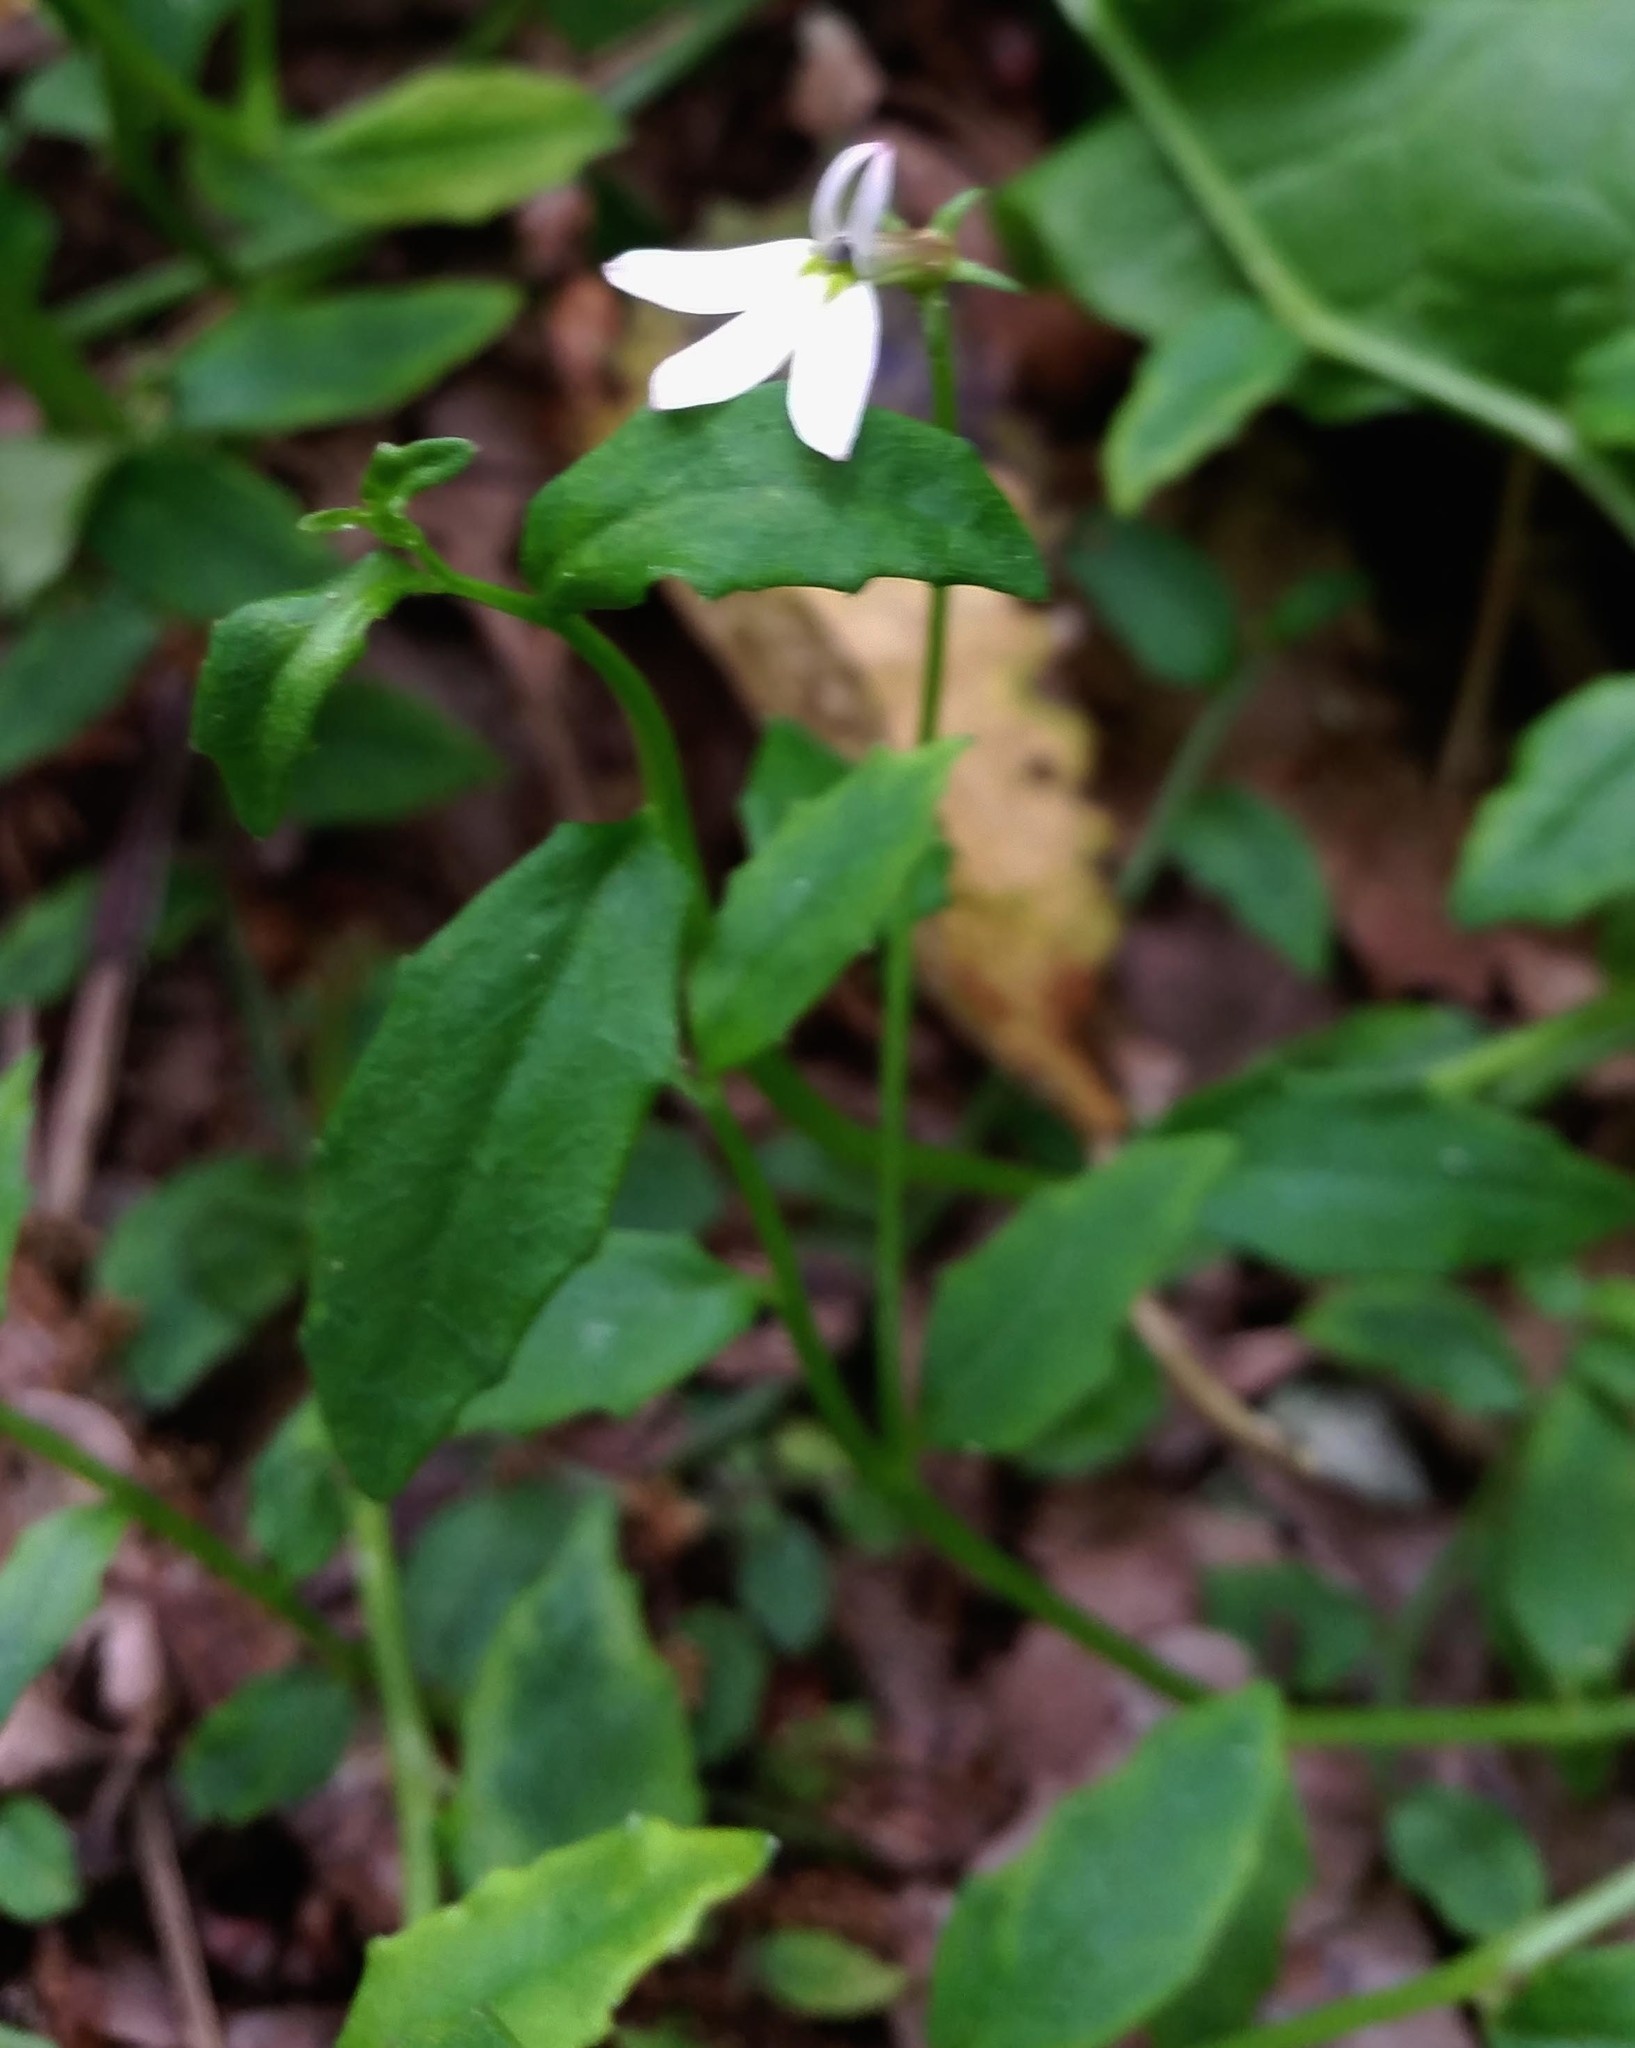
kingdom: Plantae
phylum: Tracheophyta
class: Magnoliopsida
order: Asterales
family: Campanulaceae
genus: Lobelia
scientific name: Lobelia purpurascens
